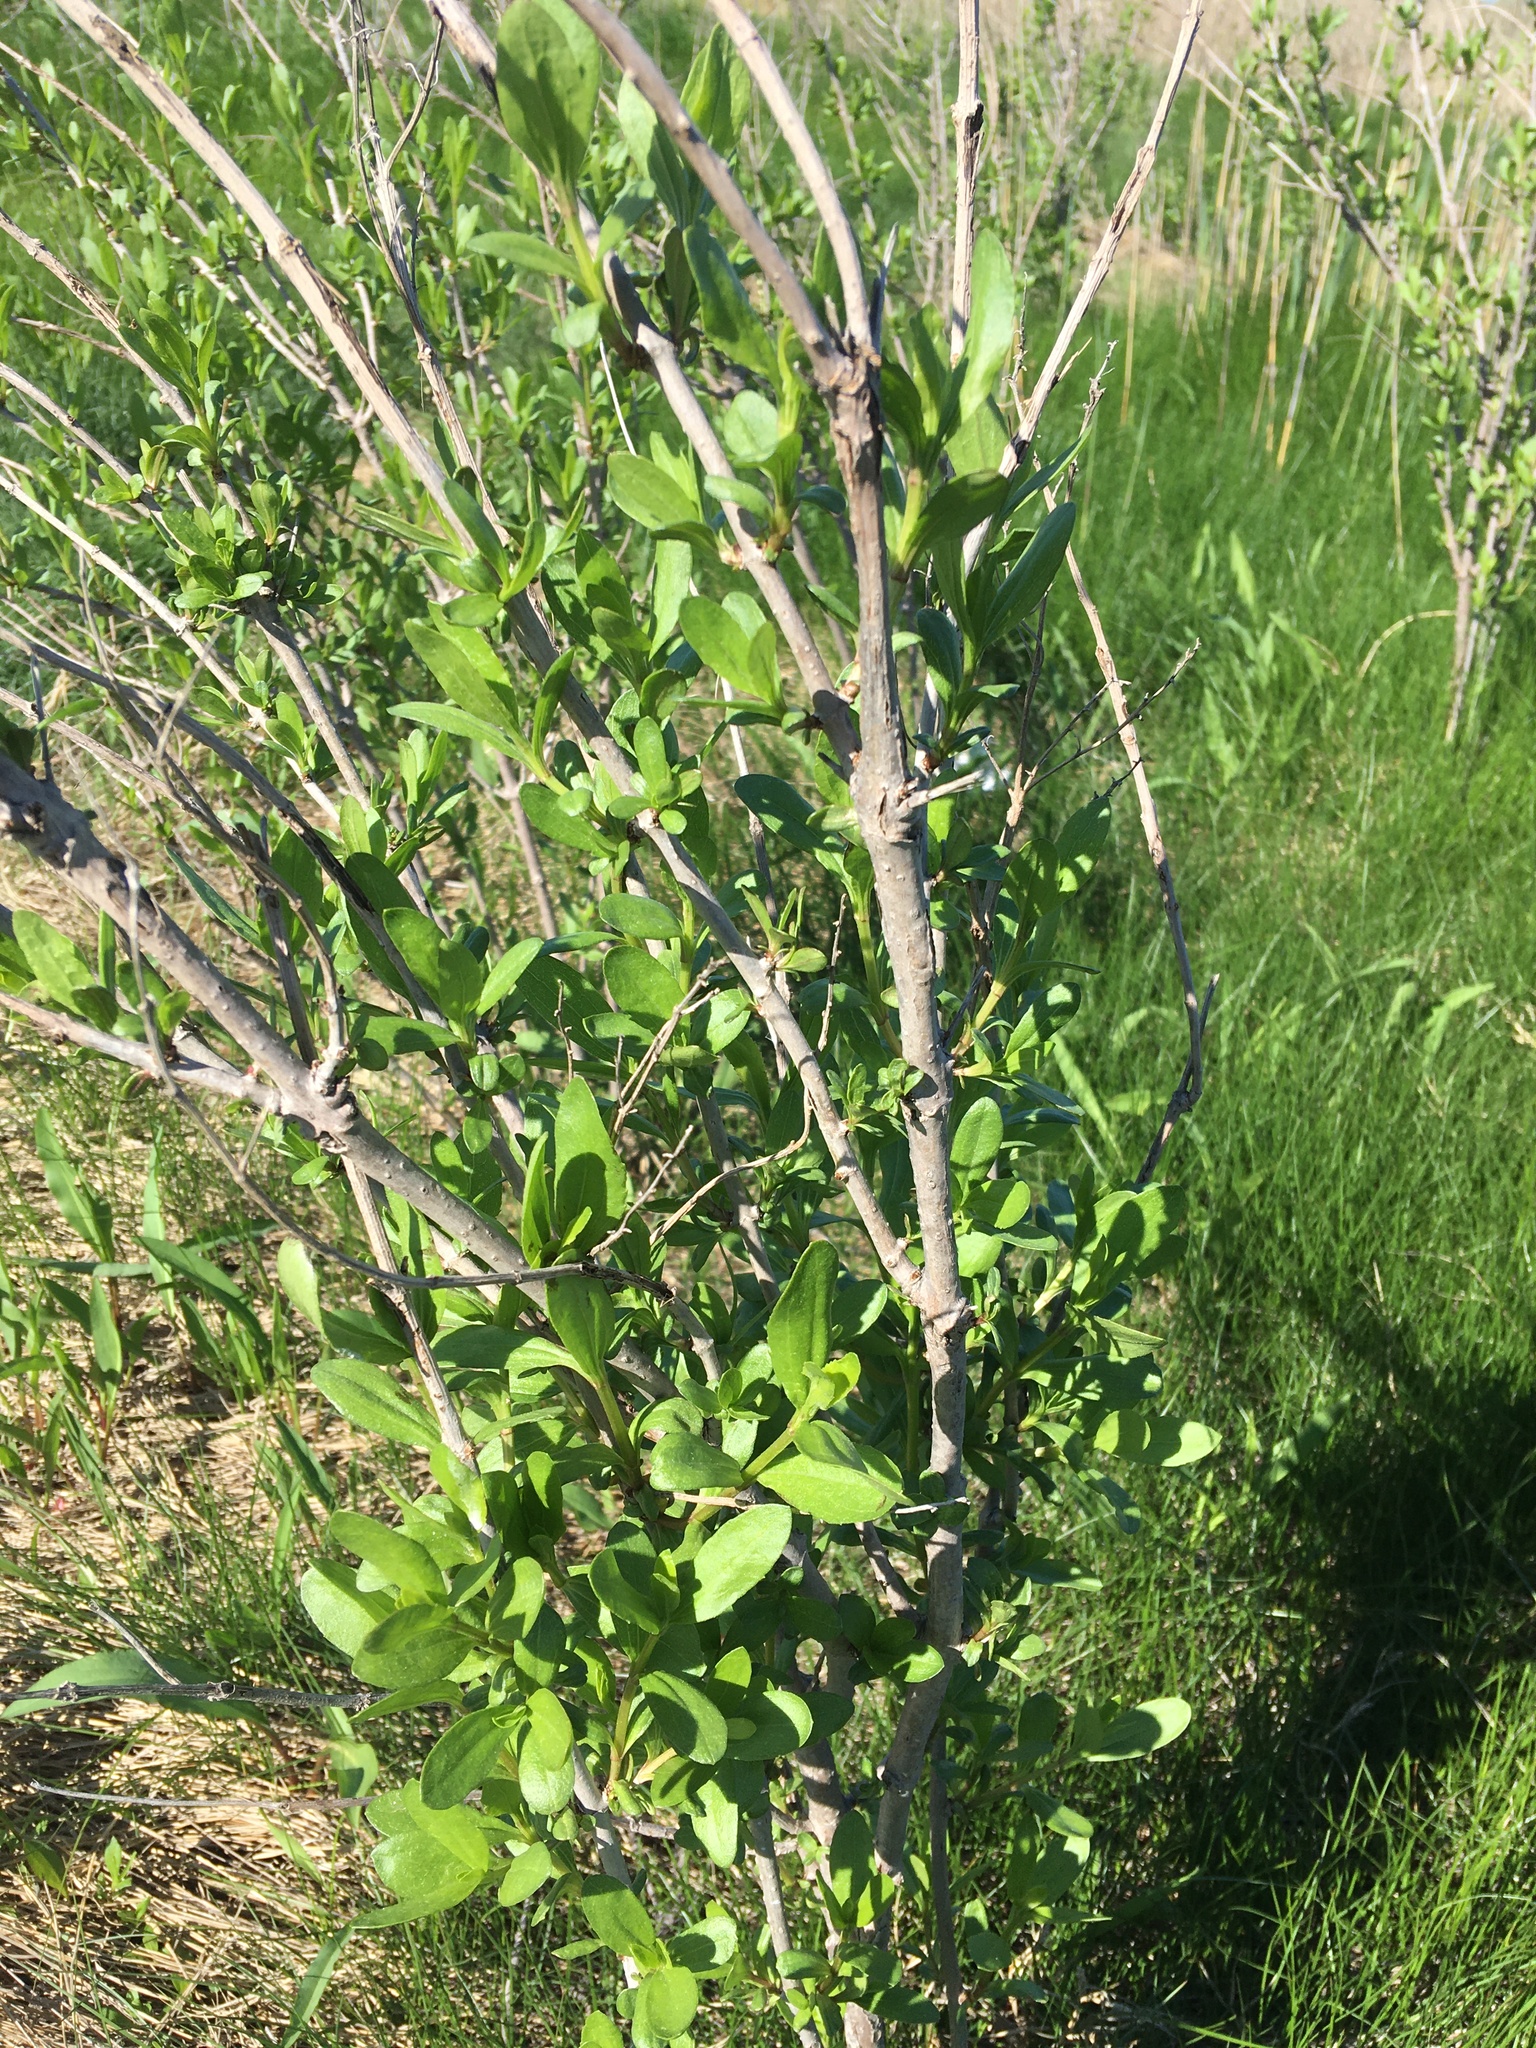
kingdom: Plantae
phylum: Tracheophyta
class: Magnoliopsida
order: Asterales
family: Asteraceae
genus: Iva
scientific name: Iva frutescens
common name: Big-leaved marsh-elder
